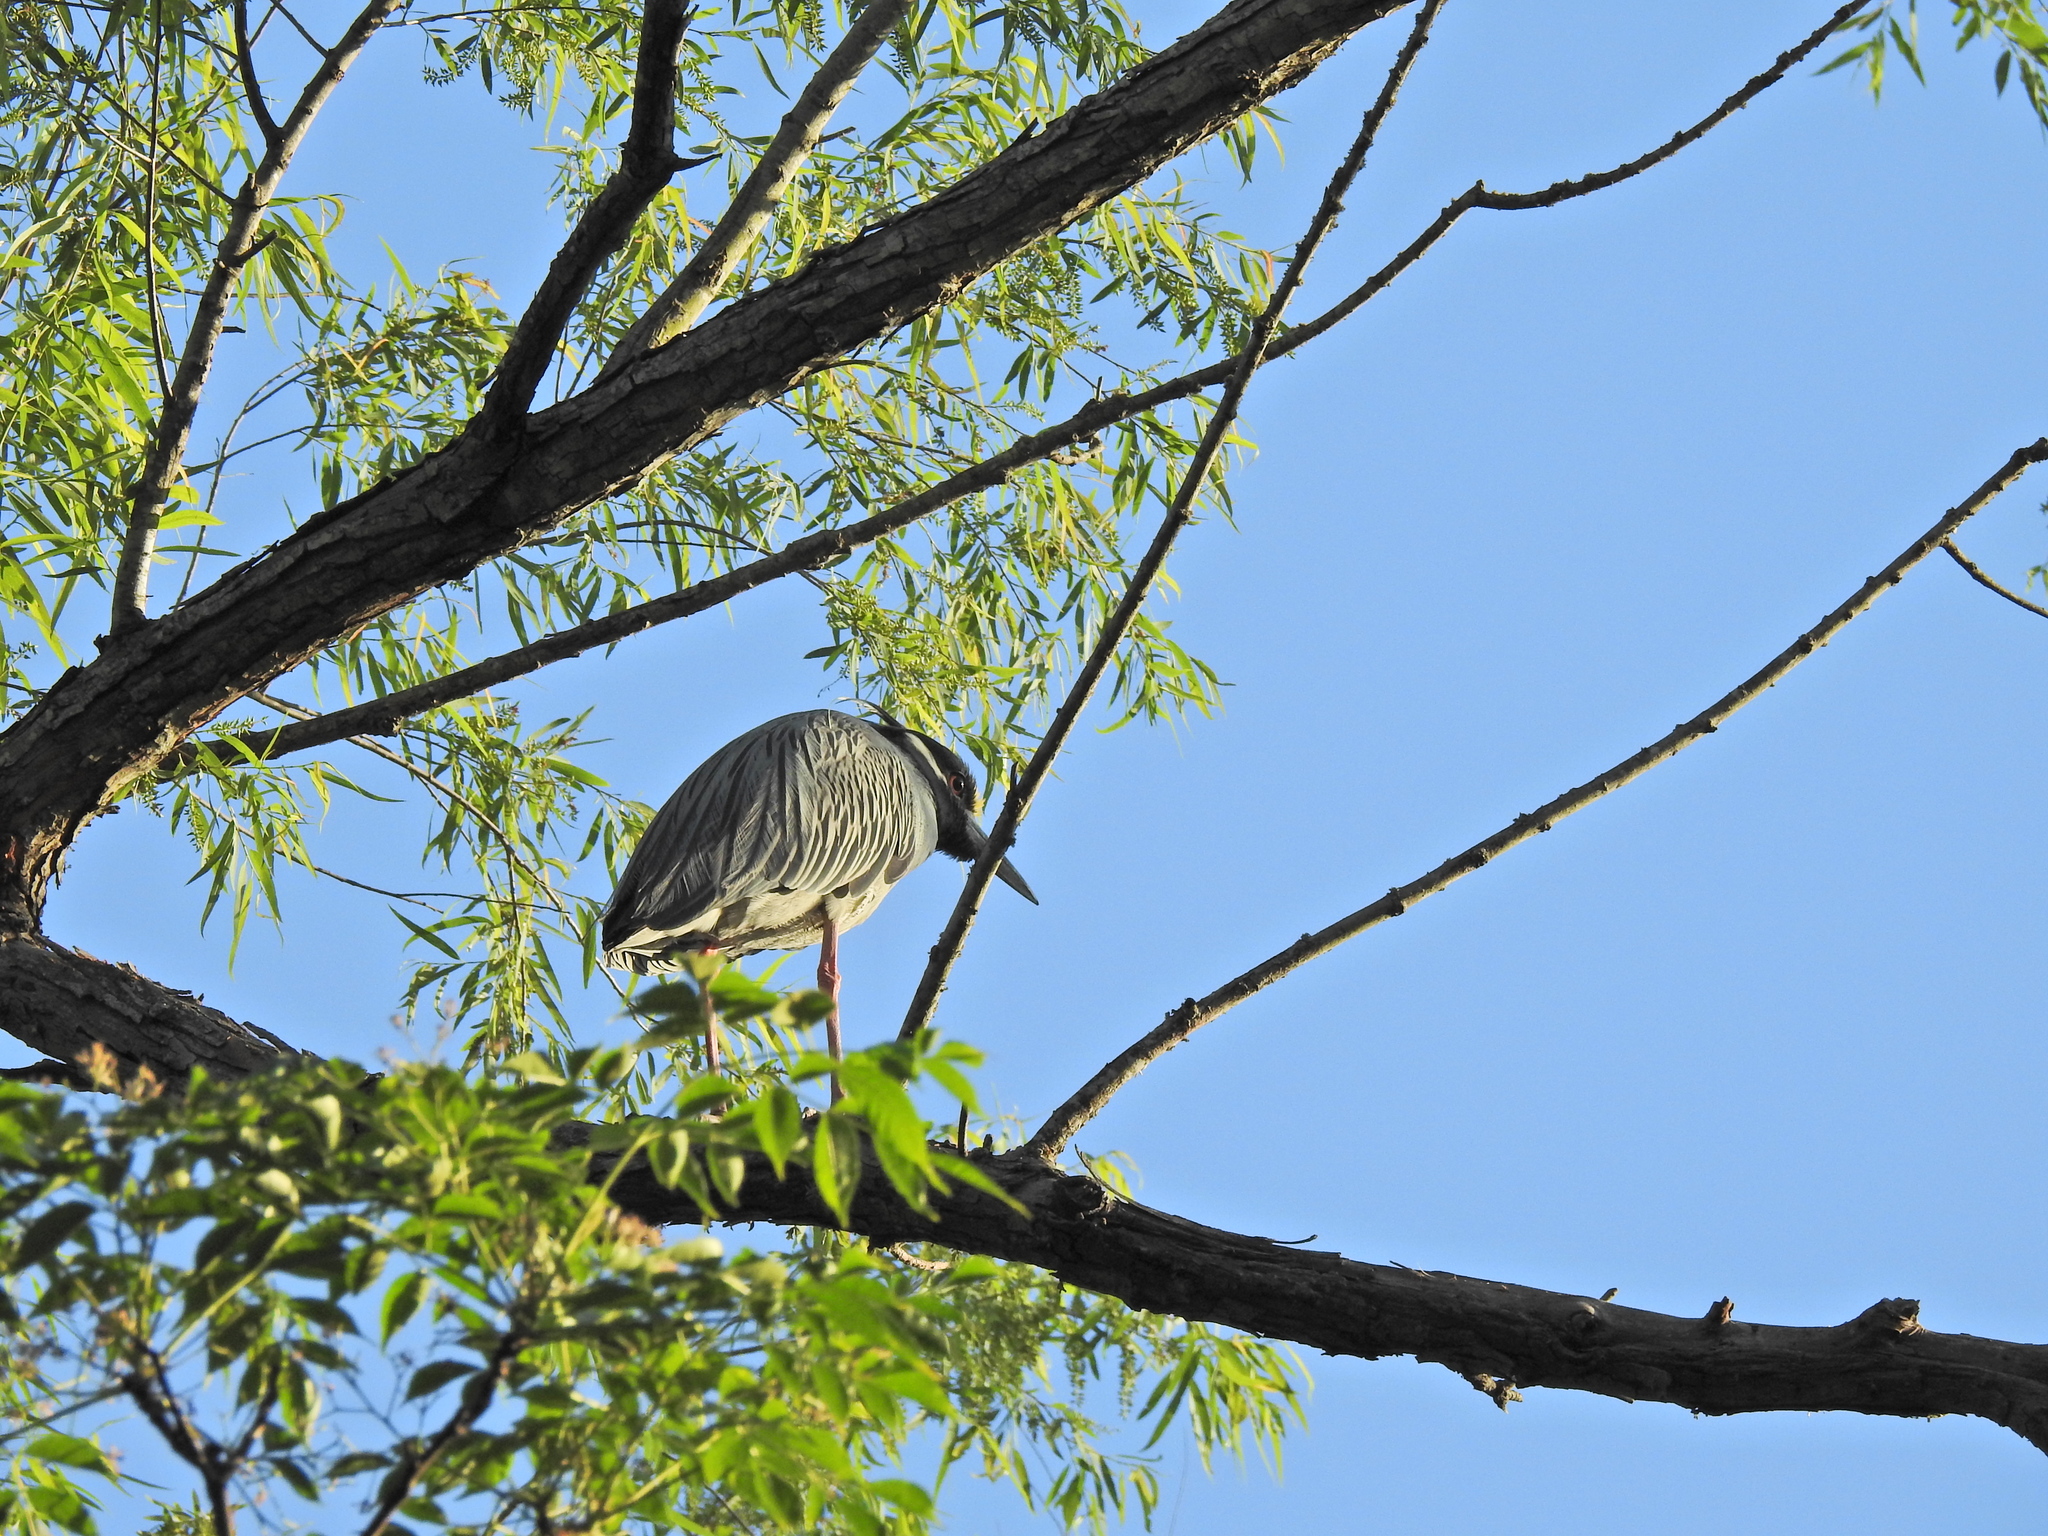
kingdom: Animalia
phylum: Chordata
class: Aves
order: Pelecaniformes
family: Ardeidae
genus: Nyctanassa
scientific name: Nyctanassa violacea
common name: Yellow-crowned night heron
